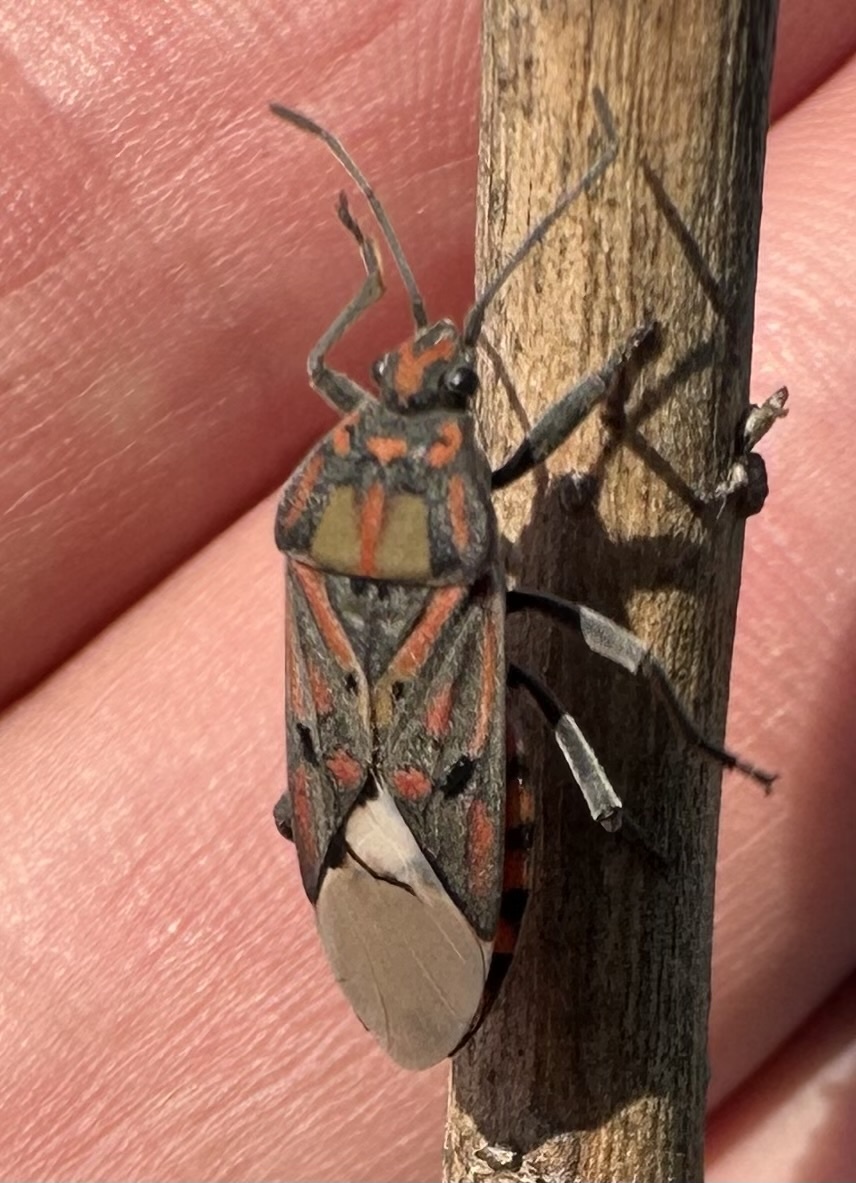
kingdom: Animalia
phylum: Arthropoda
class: Insecta
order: Hemiptera
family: Lygaeidae
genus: Spilostethus
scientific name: Spilostethus pandurus
